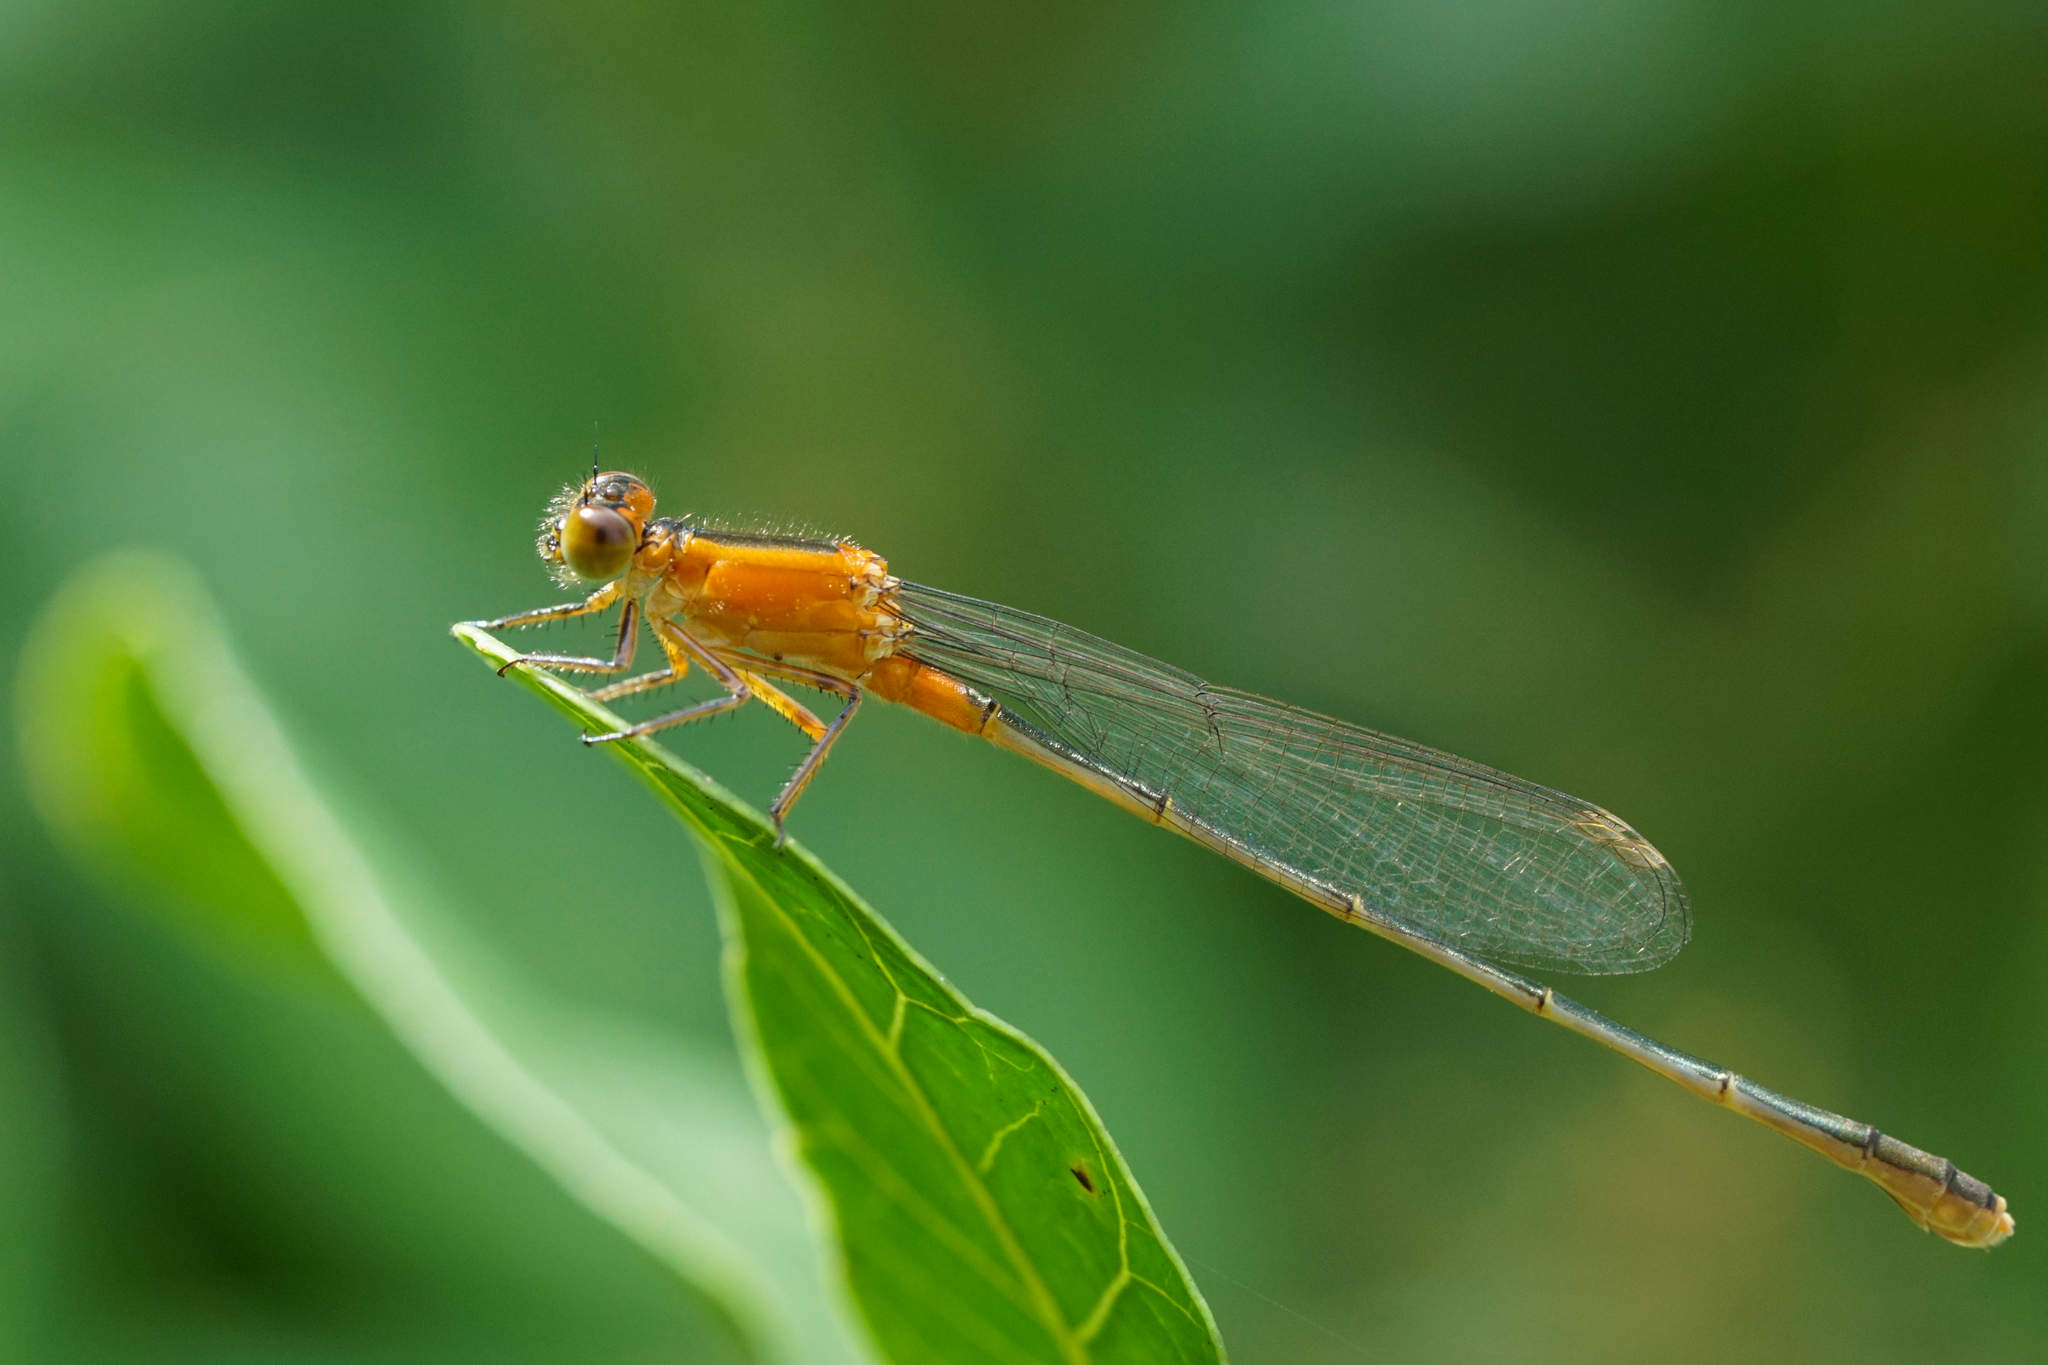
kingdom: Animalia
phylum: Arthropoda
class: Insecta
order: Odonata
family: Coenagrionidae
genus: Ischnura
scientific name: Ischnura ramburii
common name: Rambur's forktail
